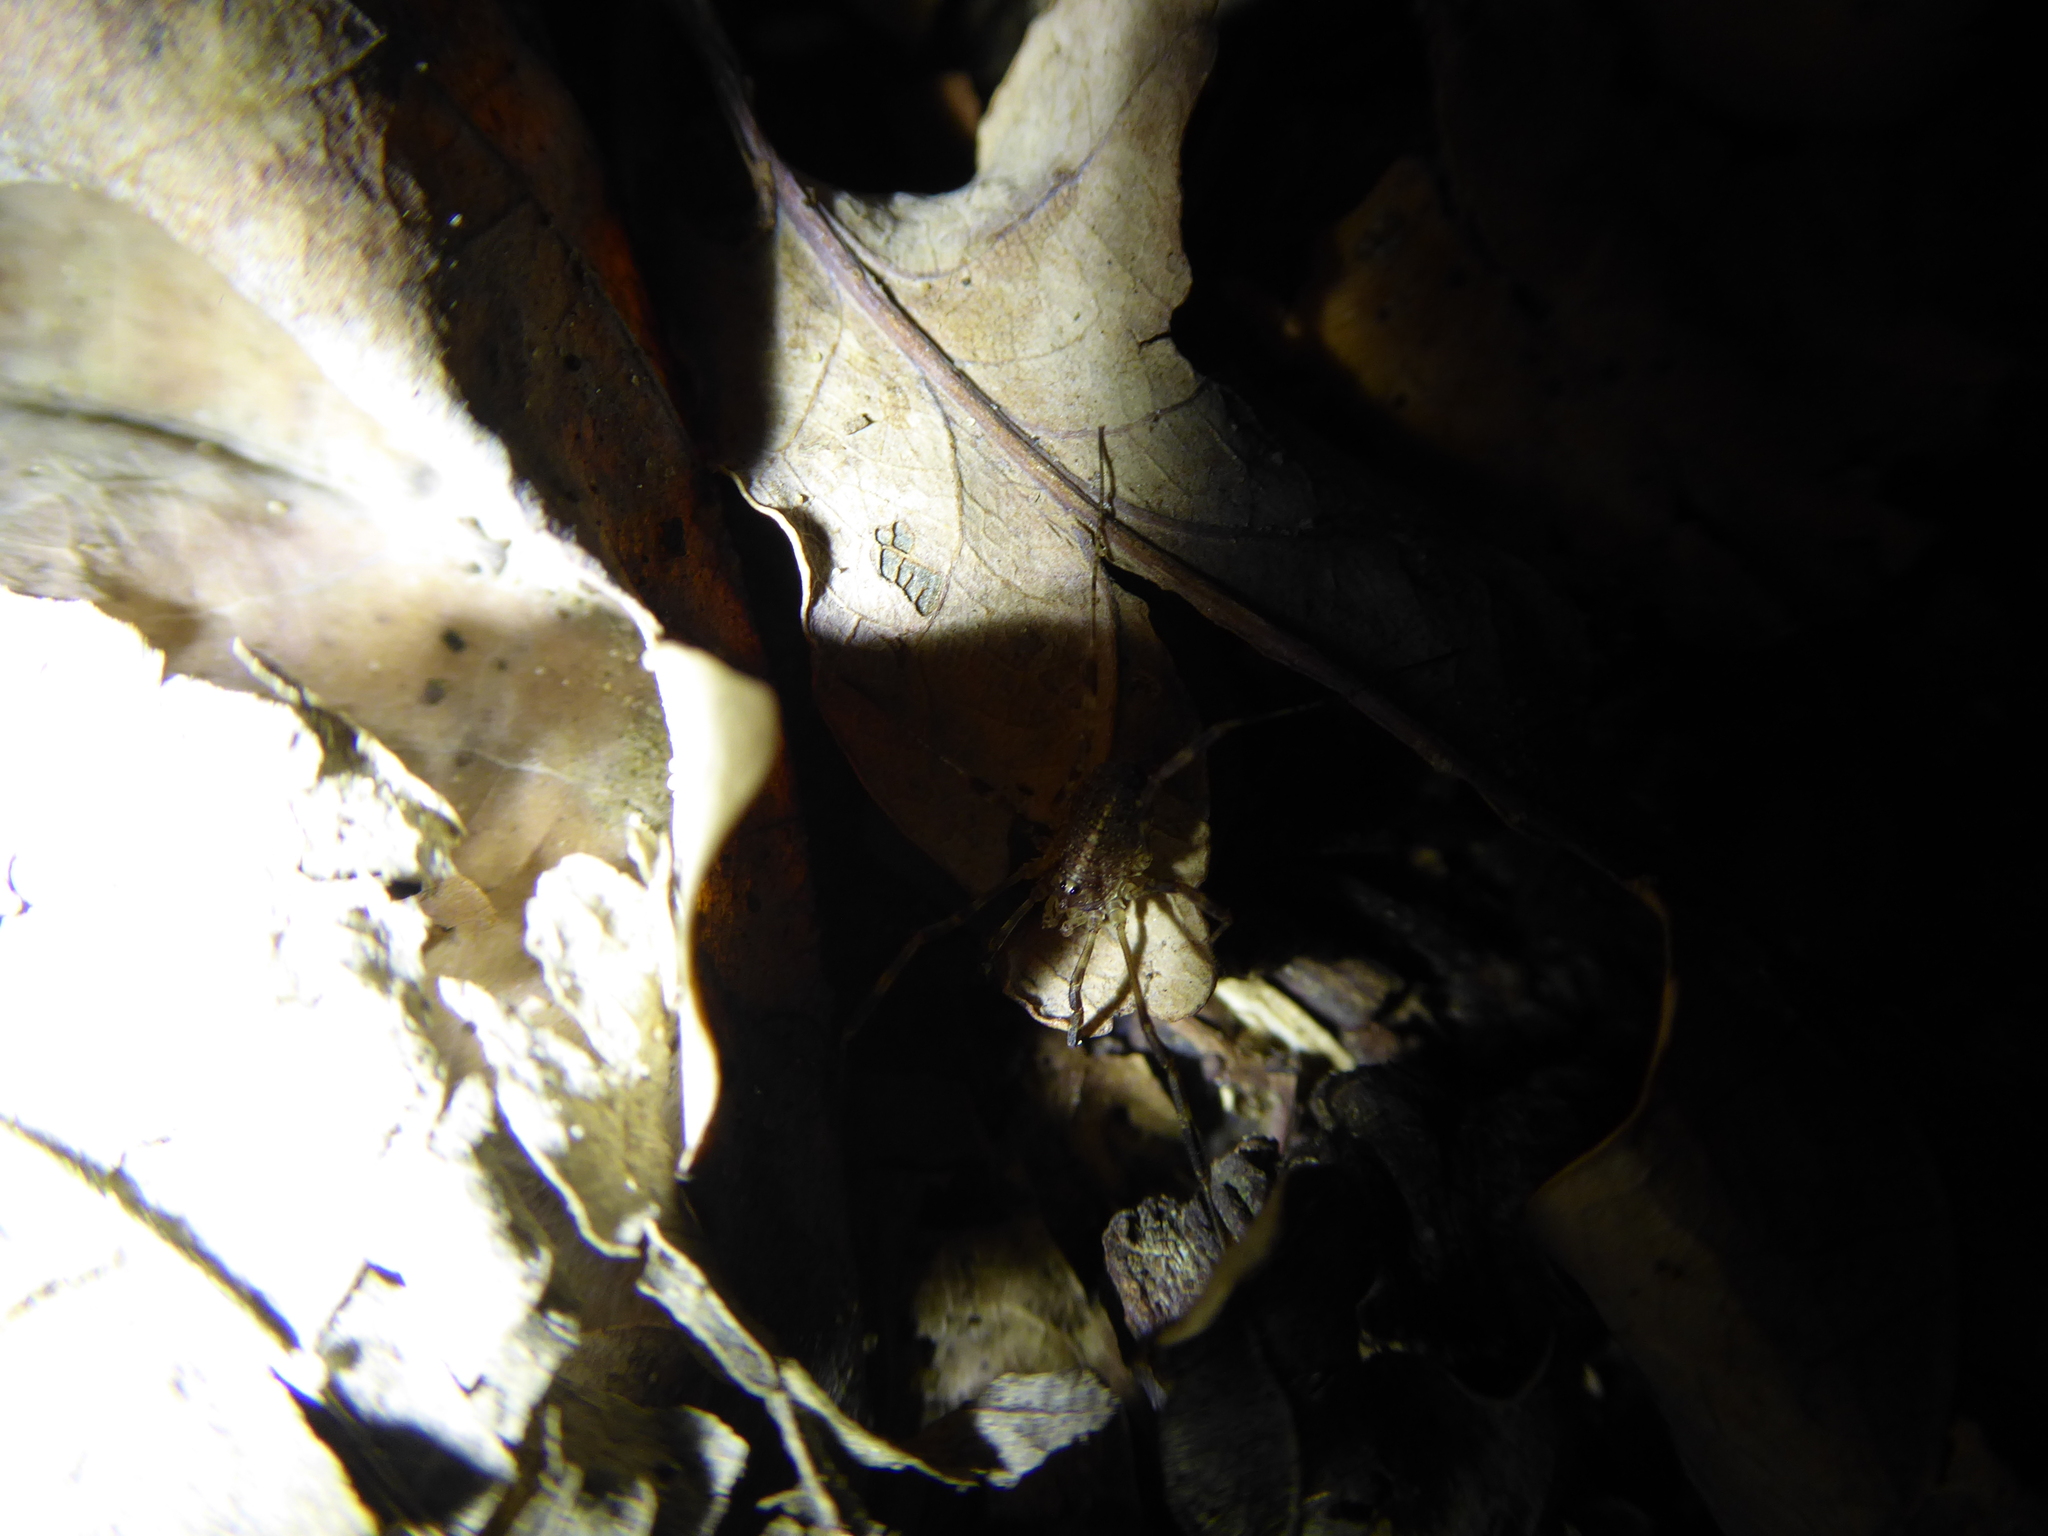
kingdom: Animalia
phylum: Arthropoda
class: Arachnida
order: Opiliones
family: Phalangiidae
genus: Paroligolophus
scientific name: Paroligolophus agrestis
